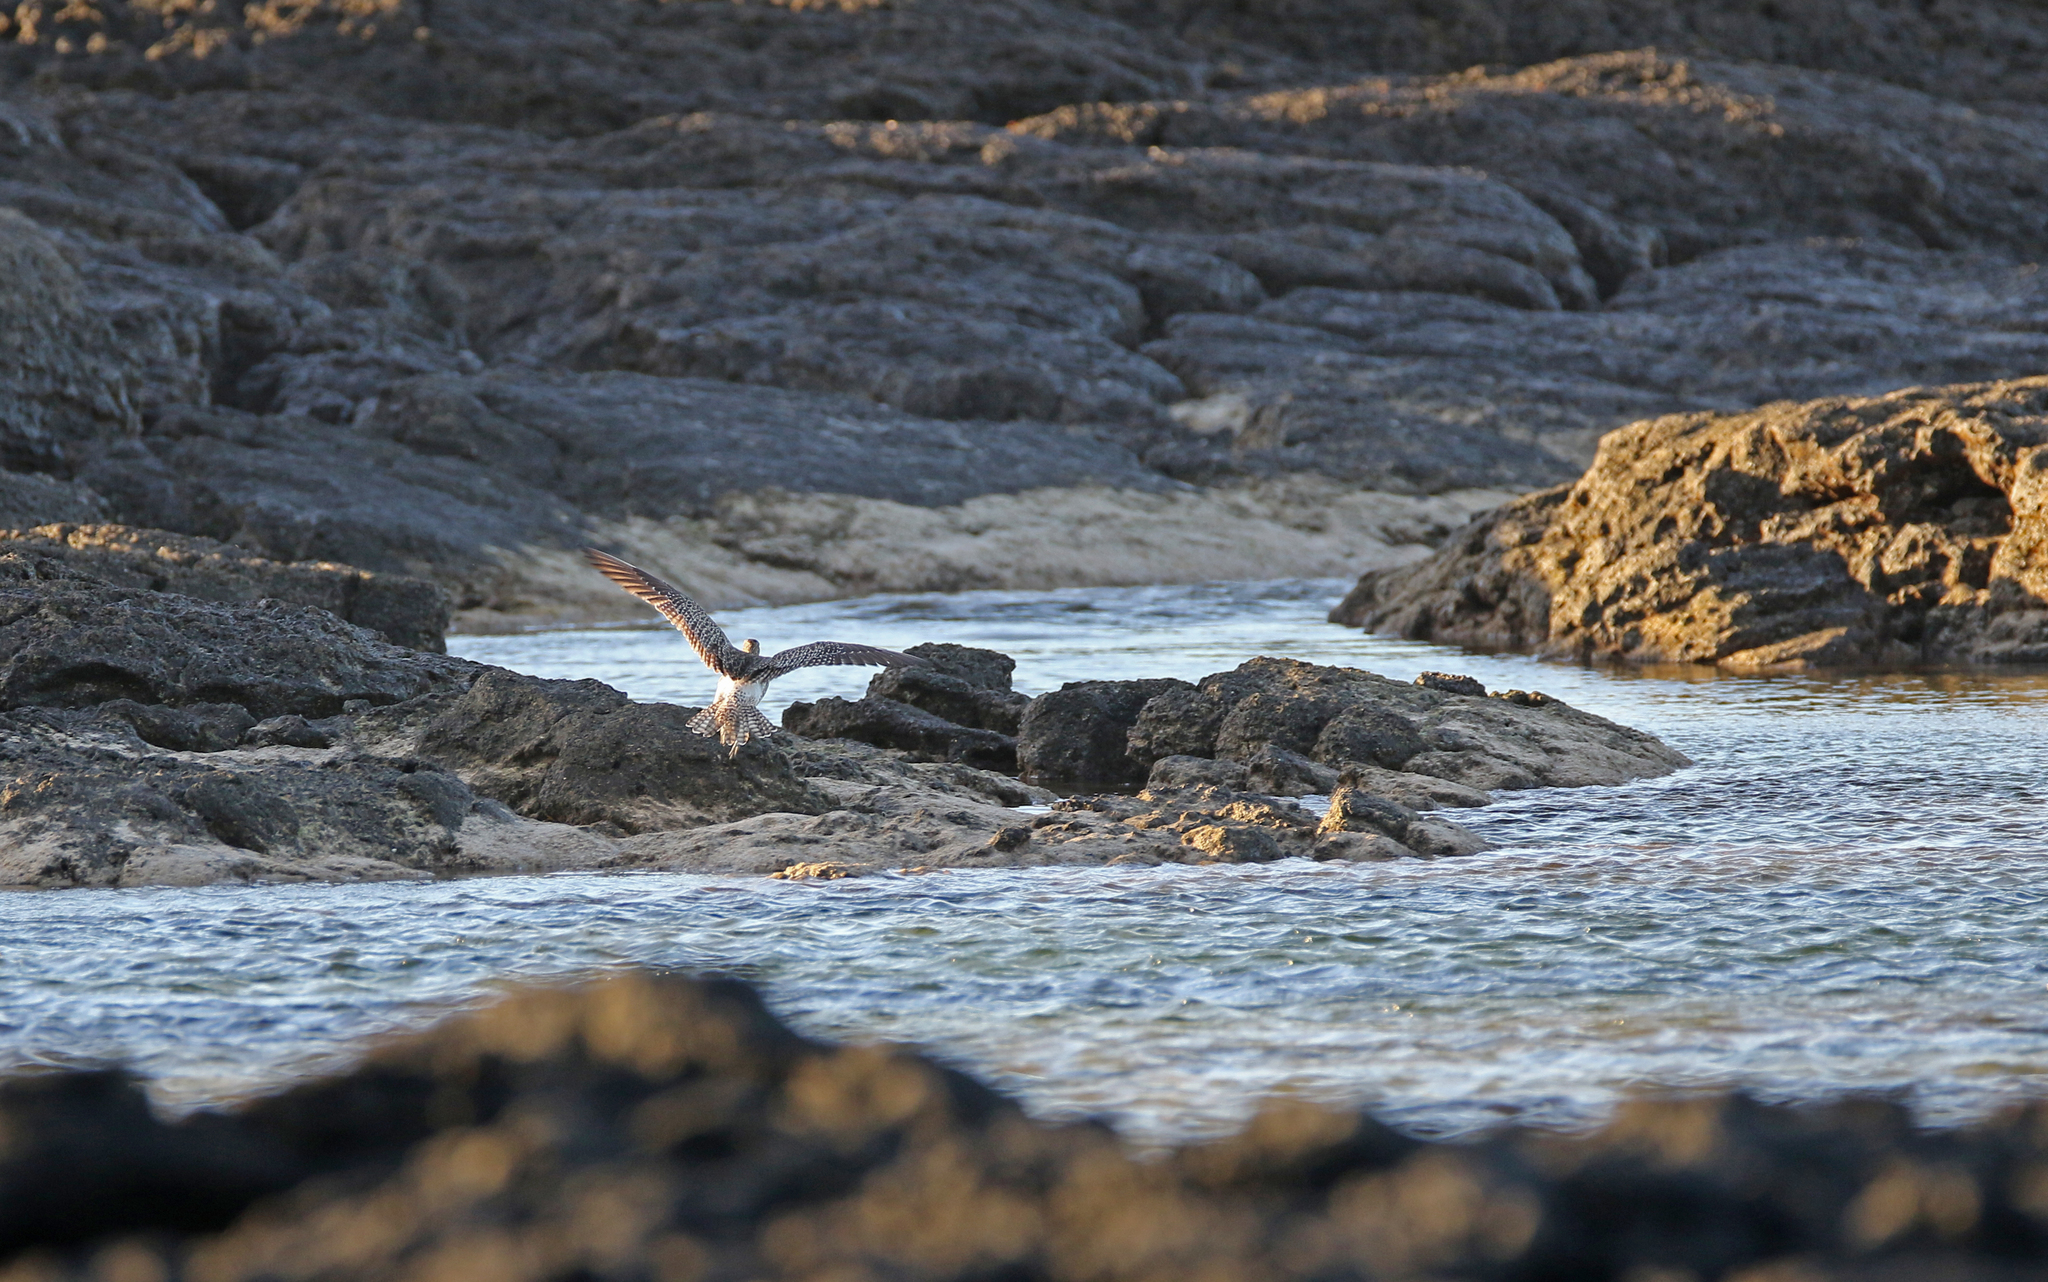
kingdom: Animalia
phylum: Chordata
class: Aves
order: Charadriiformes
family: Scolopacidae
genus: Numenius
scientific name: Numenius phaeopus
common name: Whimbrel
